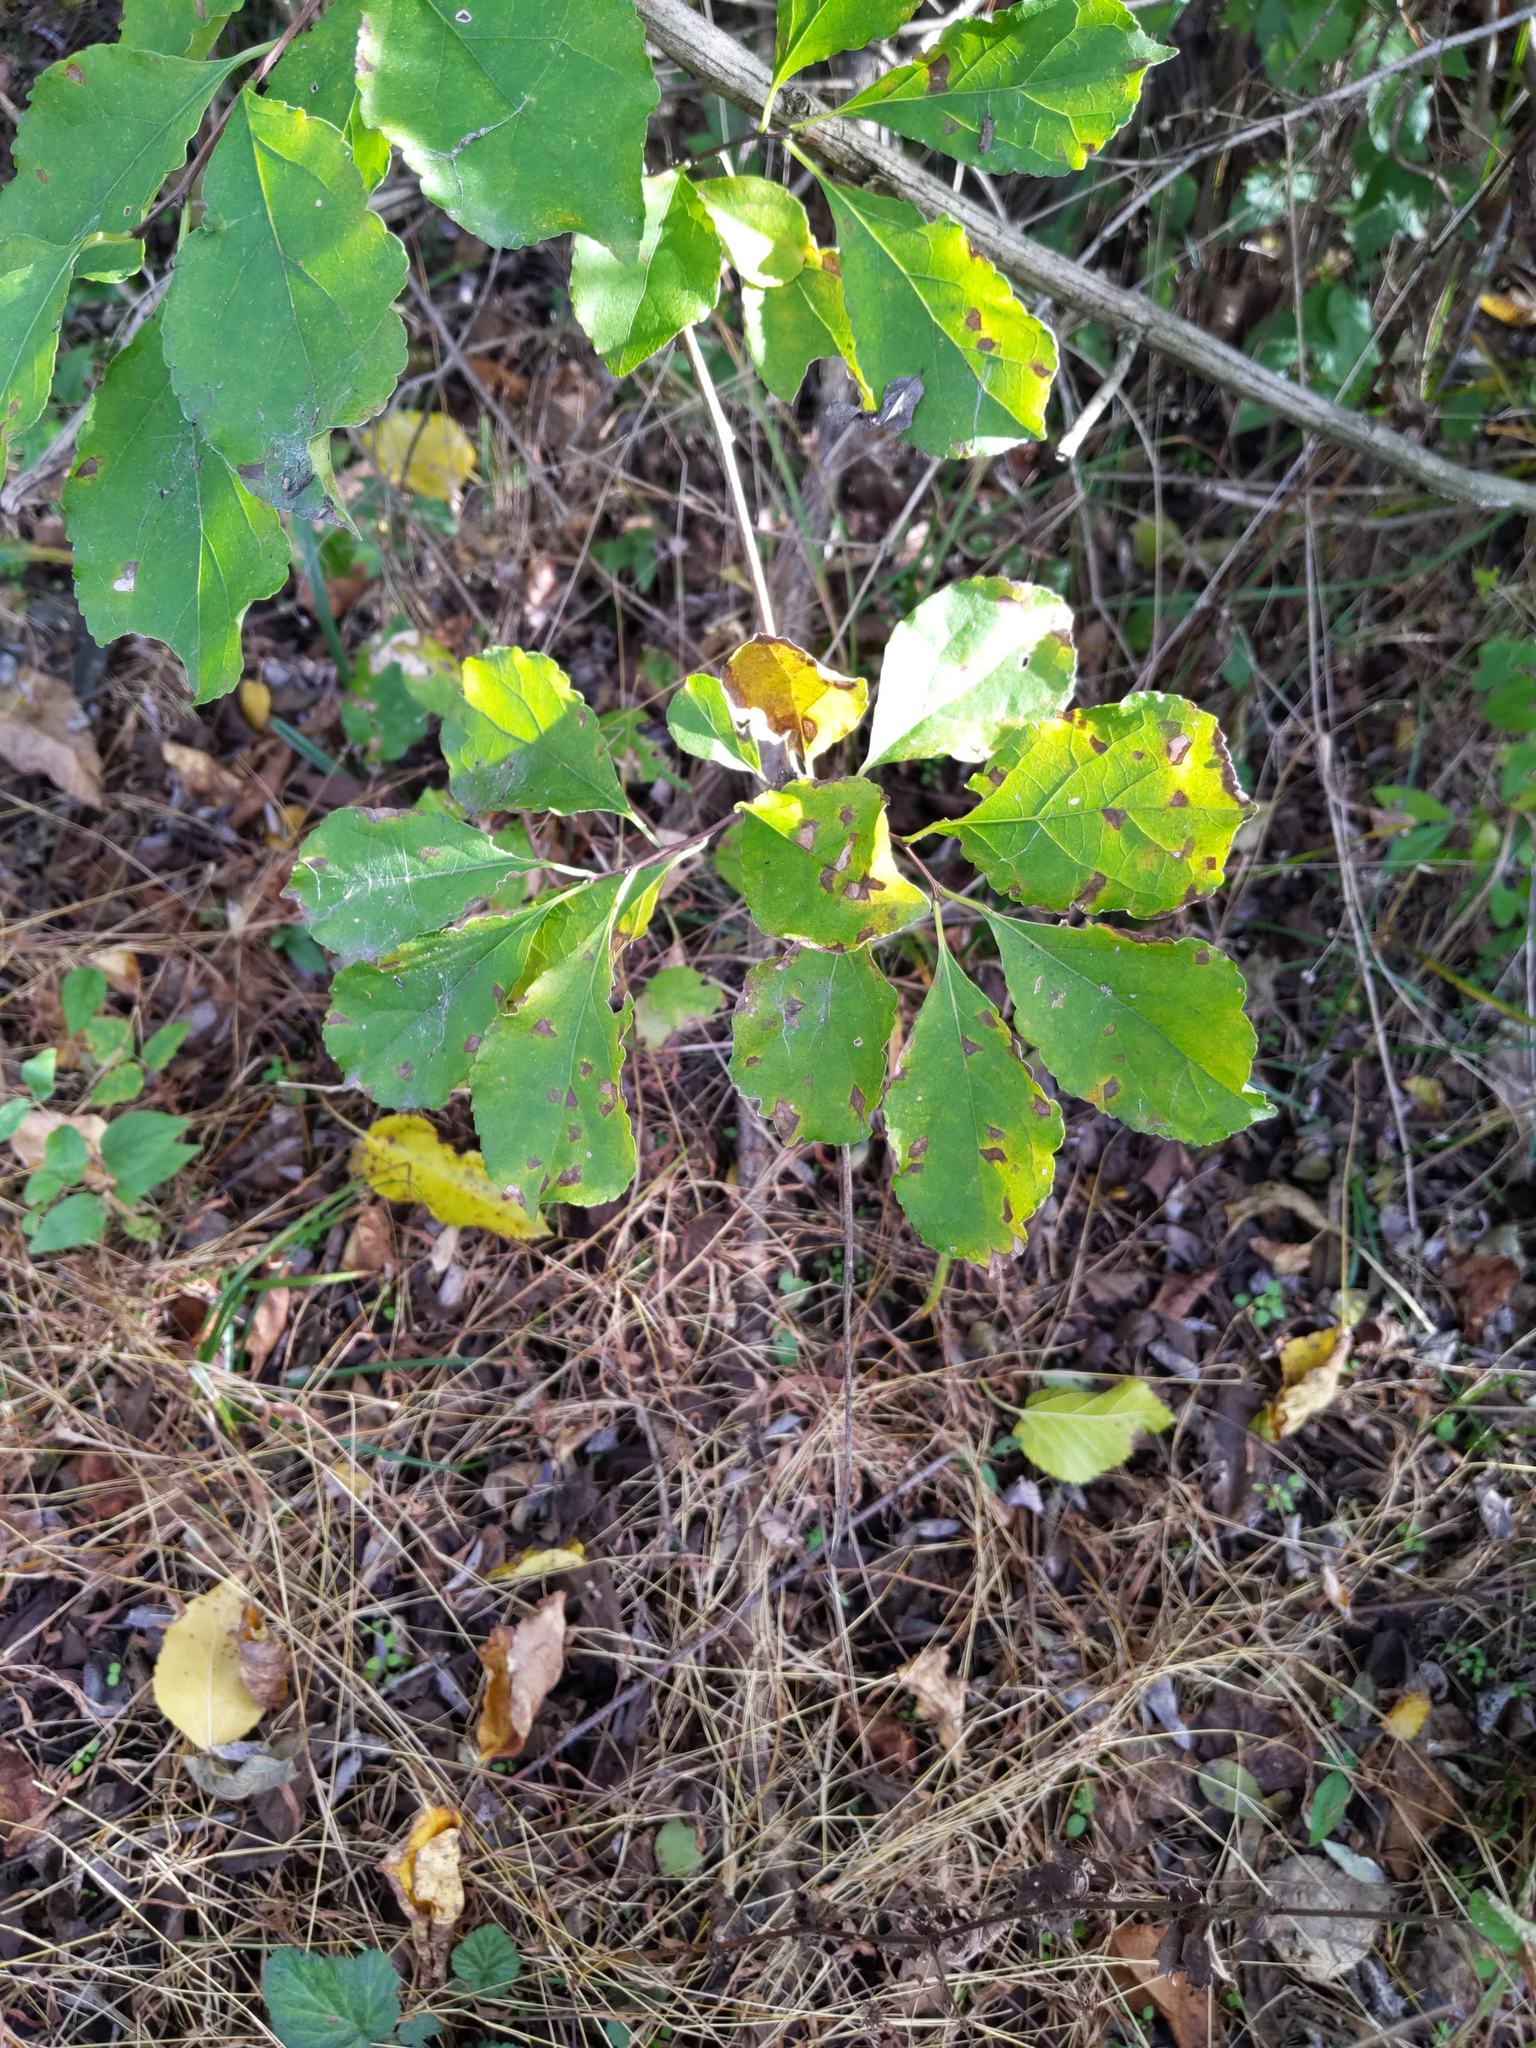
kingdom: Plantae
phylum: Tracheophyta
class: Magnoliopsida
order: Celastrales
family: Celastraceae
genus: Celastrus
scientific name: Celastrus orbiculatus
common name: Oriental bittersweet
